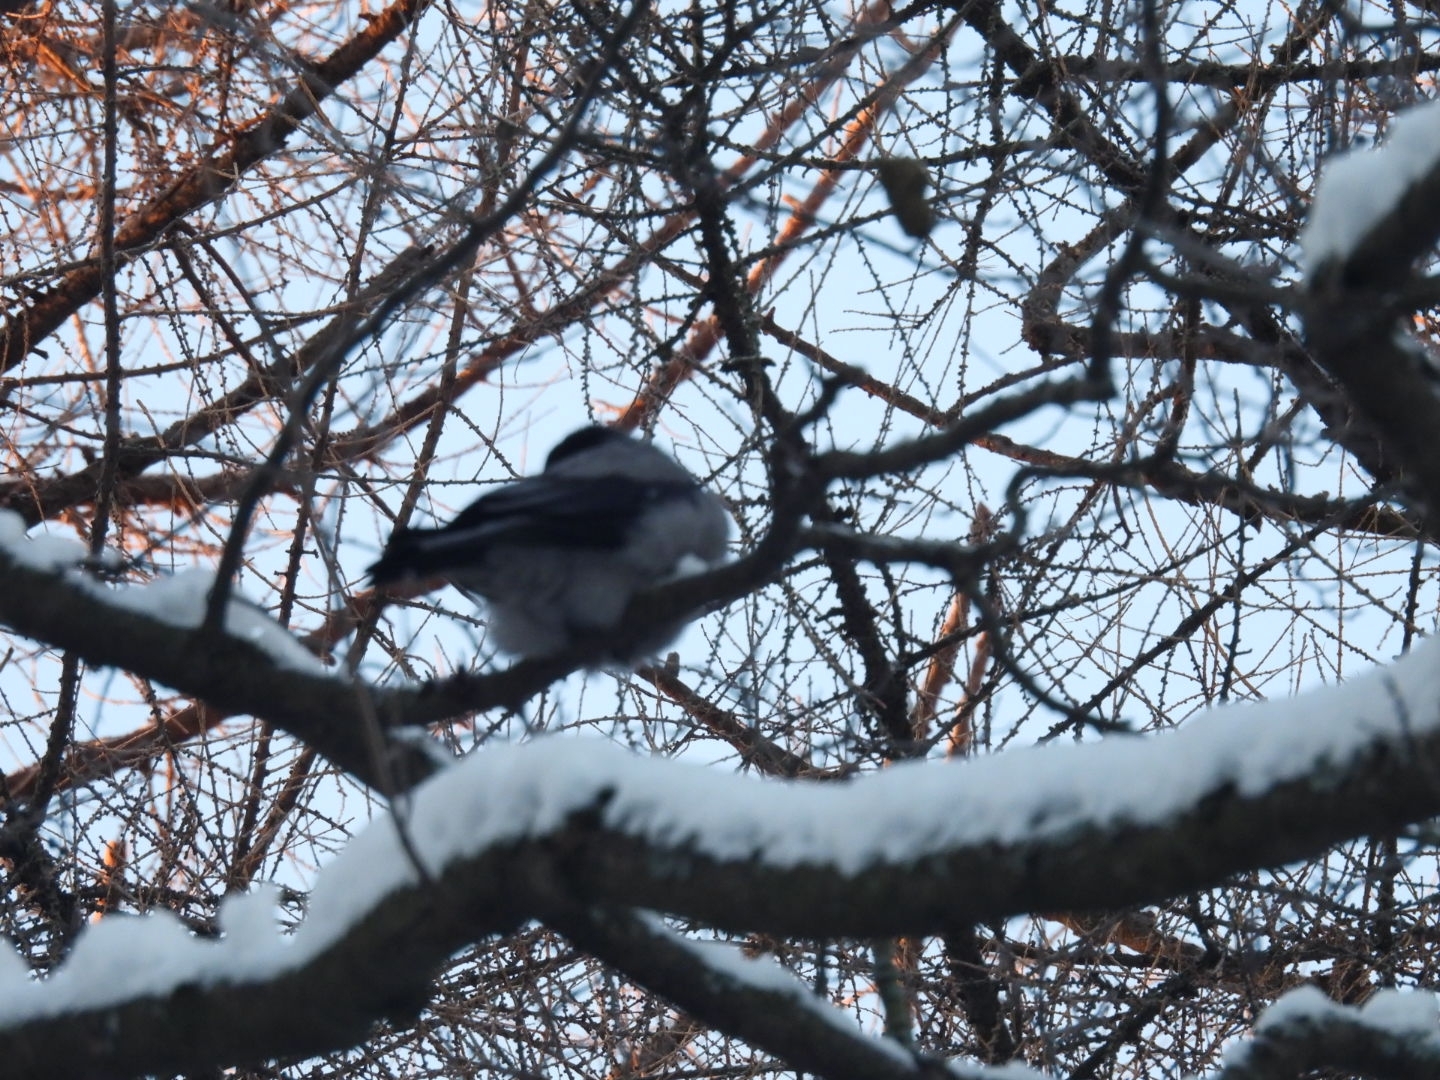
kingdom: Animalia
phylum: Chordata
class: Aves
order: Passeriformes
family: Corvidae
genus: Corvus
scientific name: Corvus cornix
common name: Hooded crow
